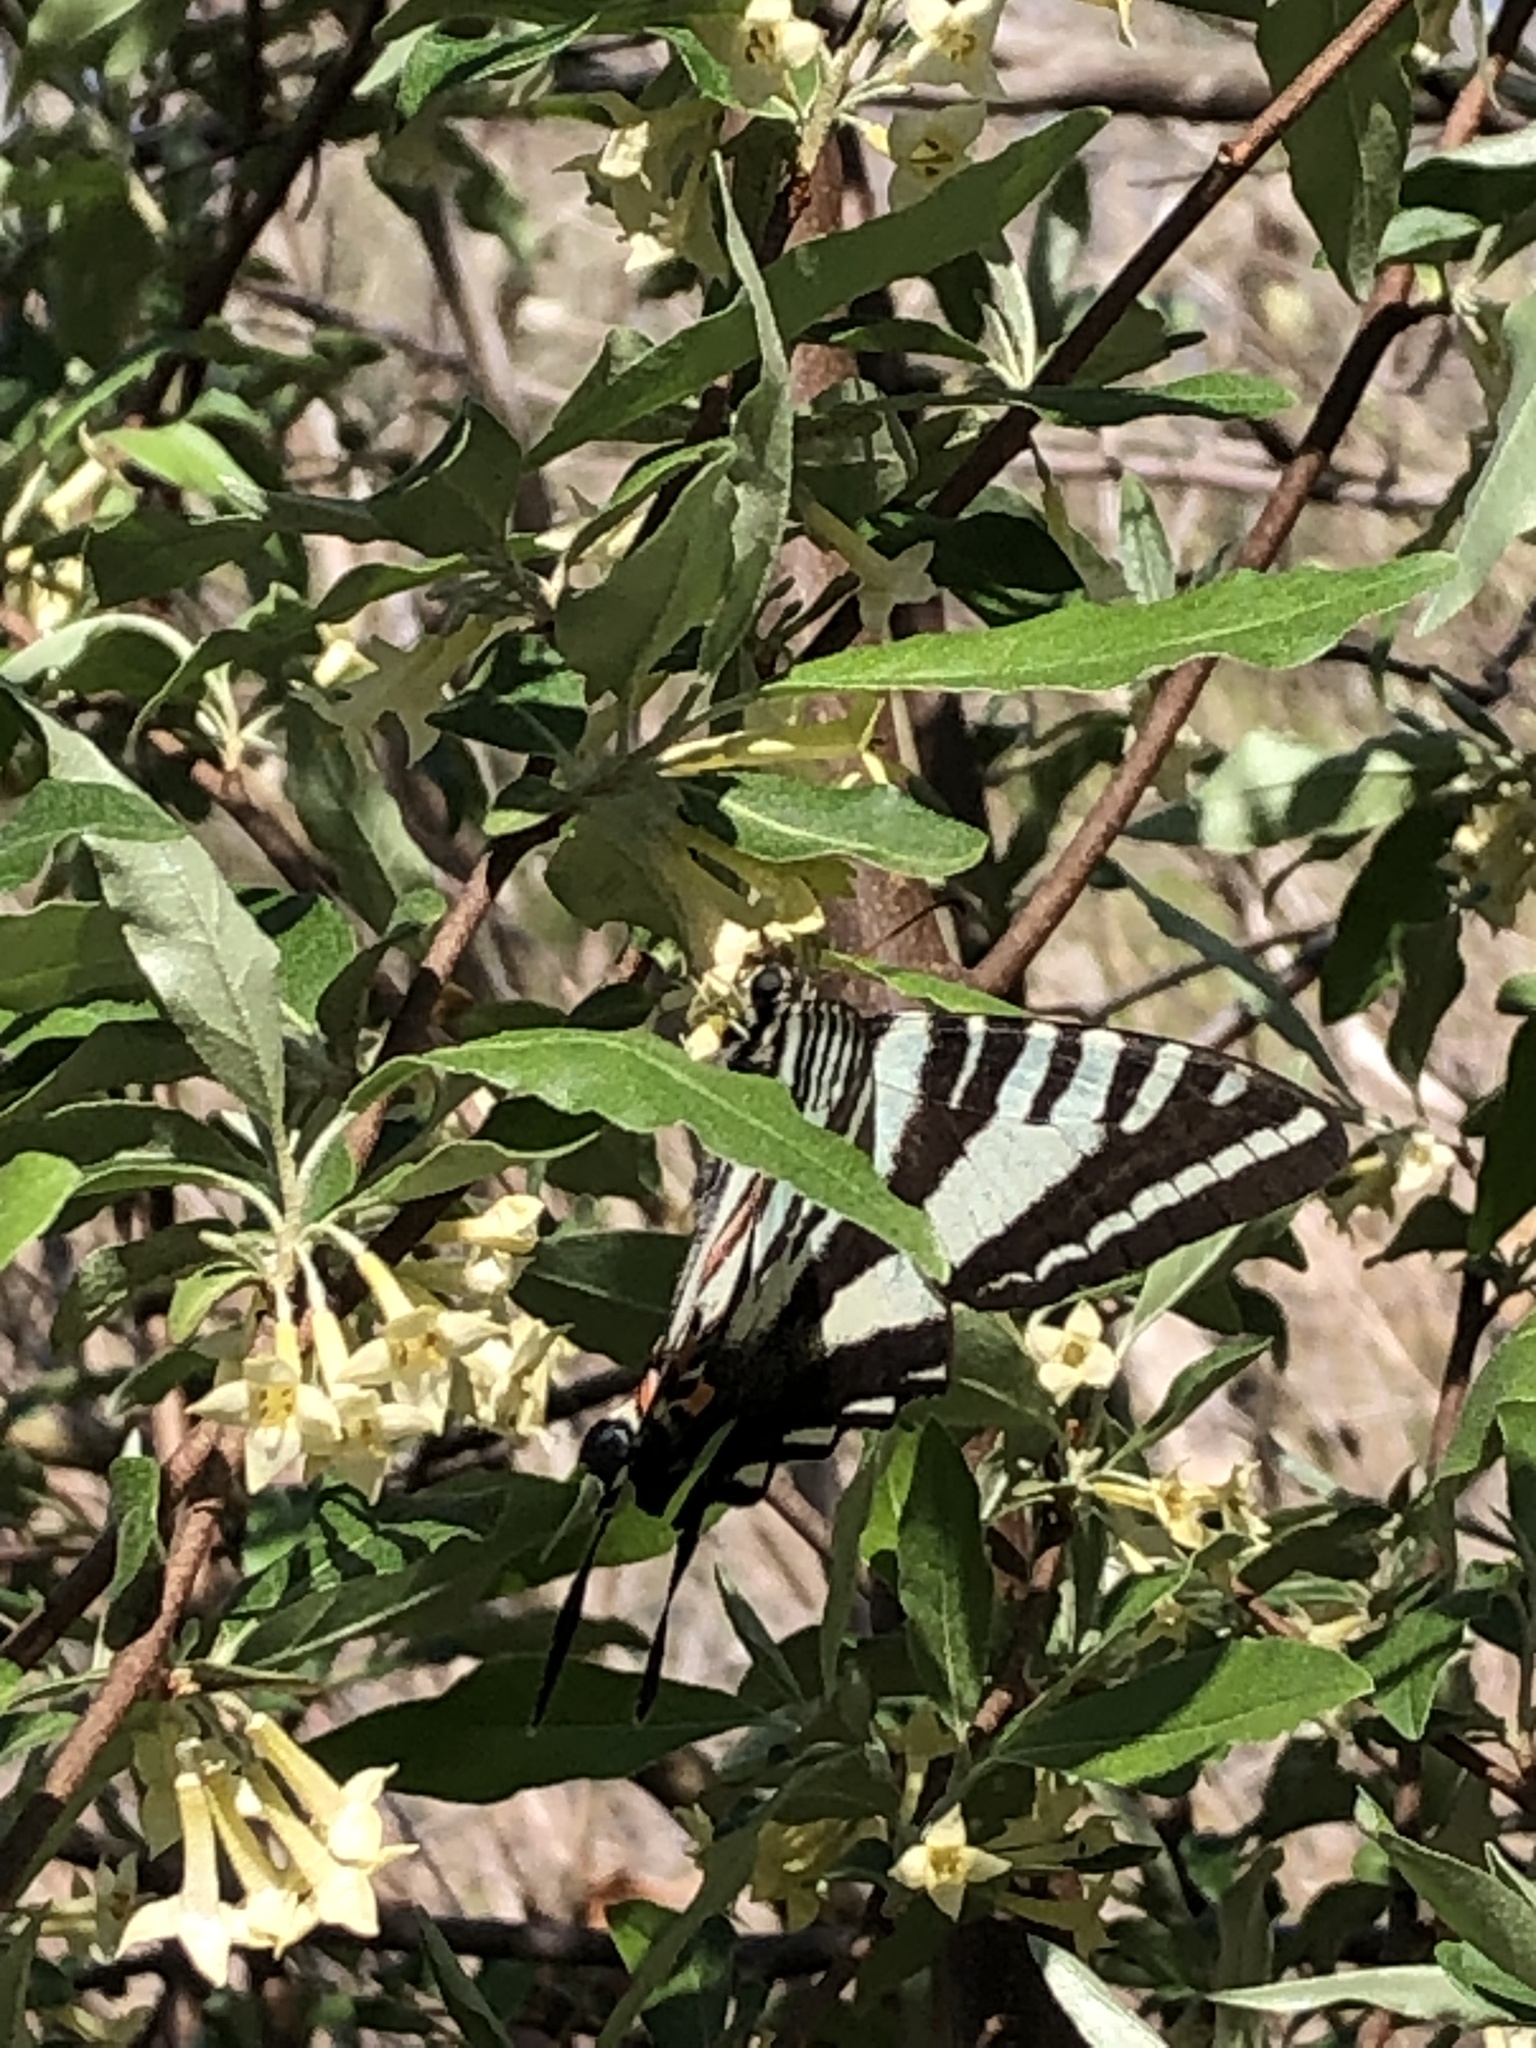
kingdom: Animalia
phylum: Arthropoda
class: Insecta
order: Lepidoptera
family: Papilionidae
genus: Protographium
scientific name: Protographium marcellus
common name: Zebra swallowtail
